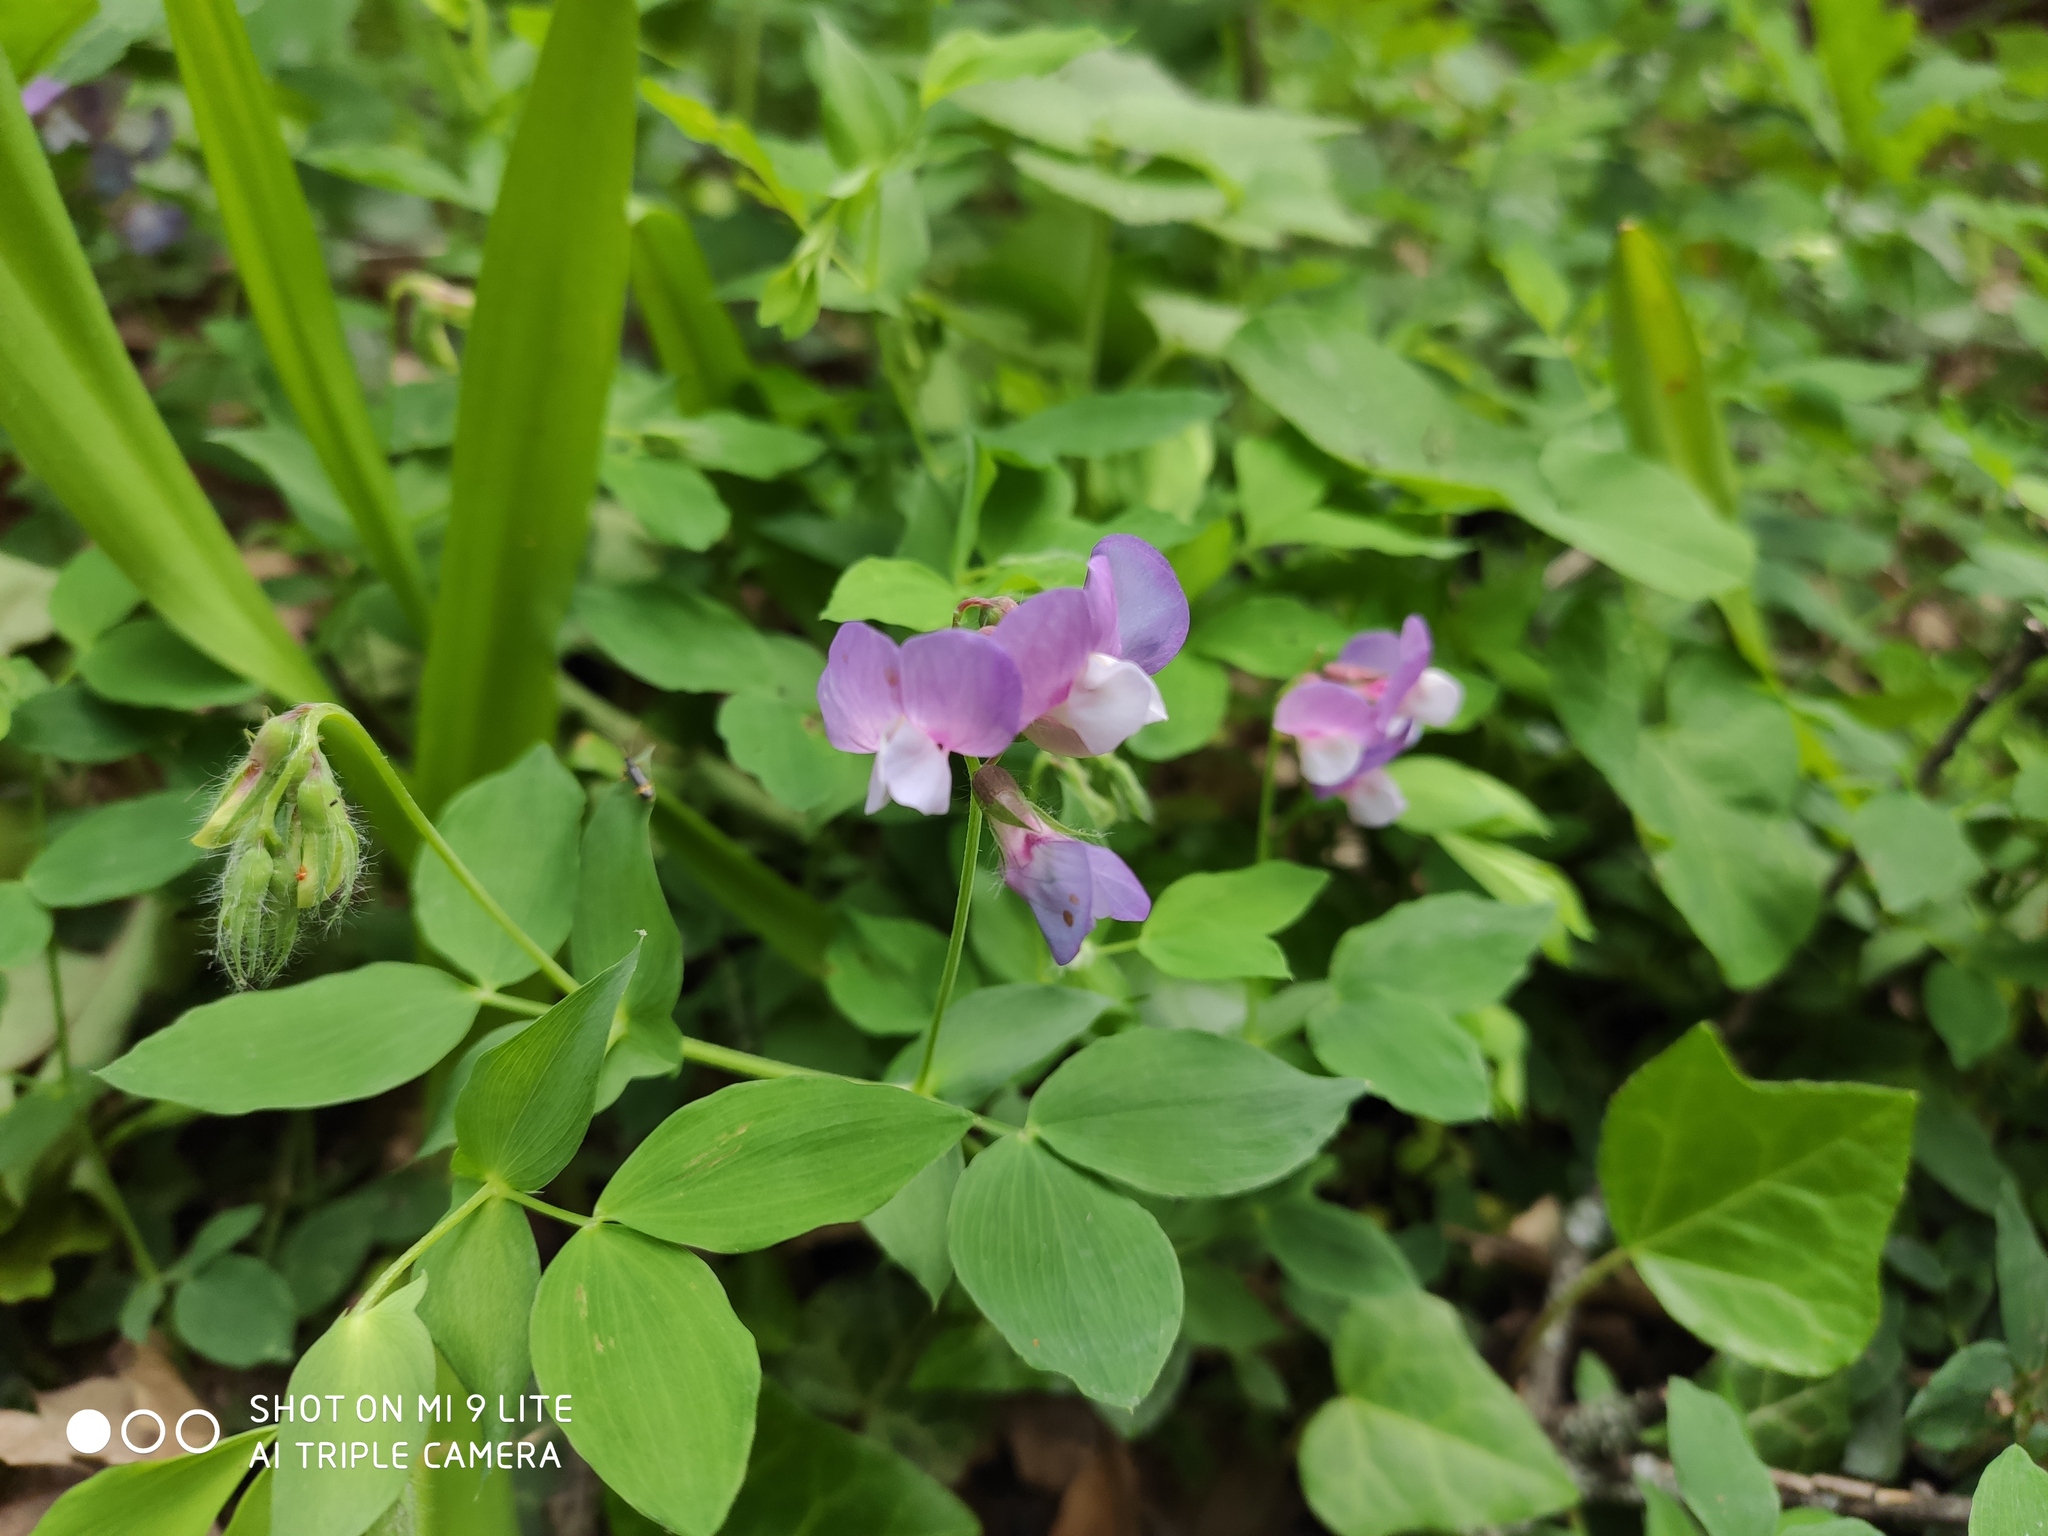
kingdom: Plantae
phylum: Tracheophyta
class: Magnoliopsida
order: Fabales
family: Fabaceae
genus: Lathyrus
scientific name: Lathyrus laxiflorus
